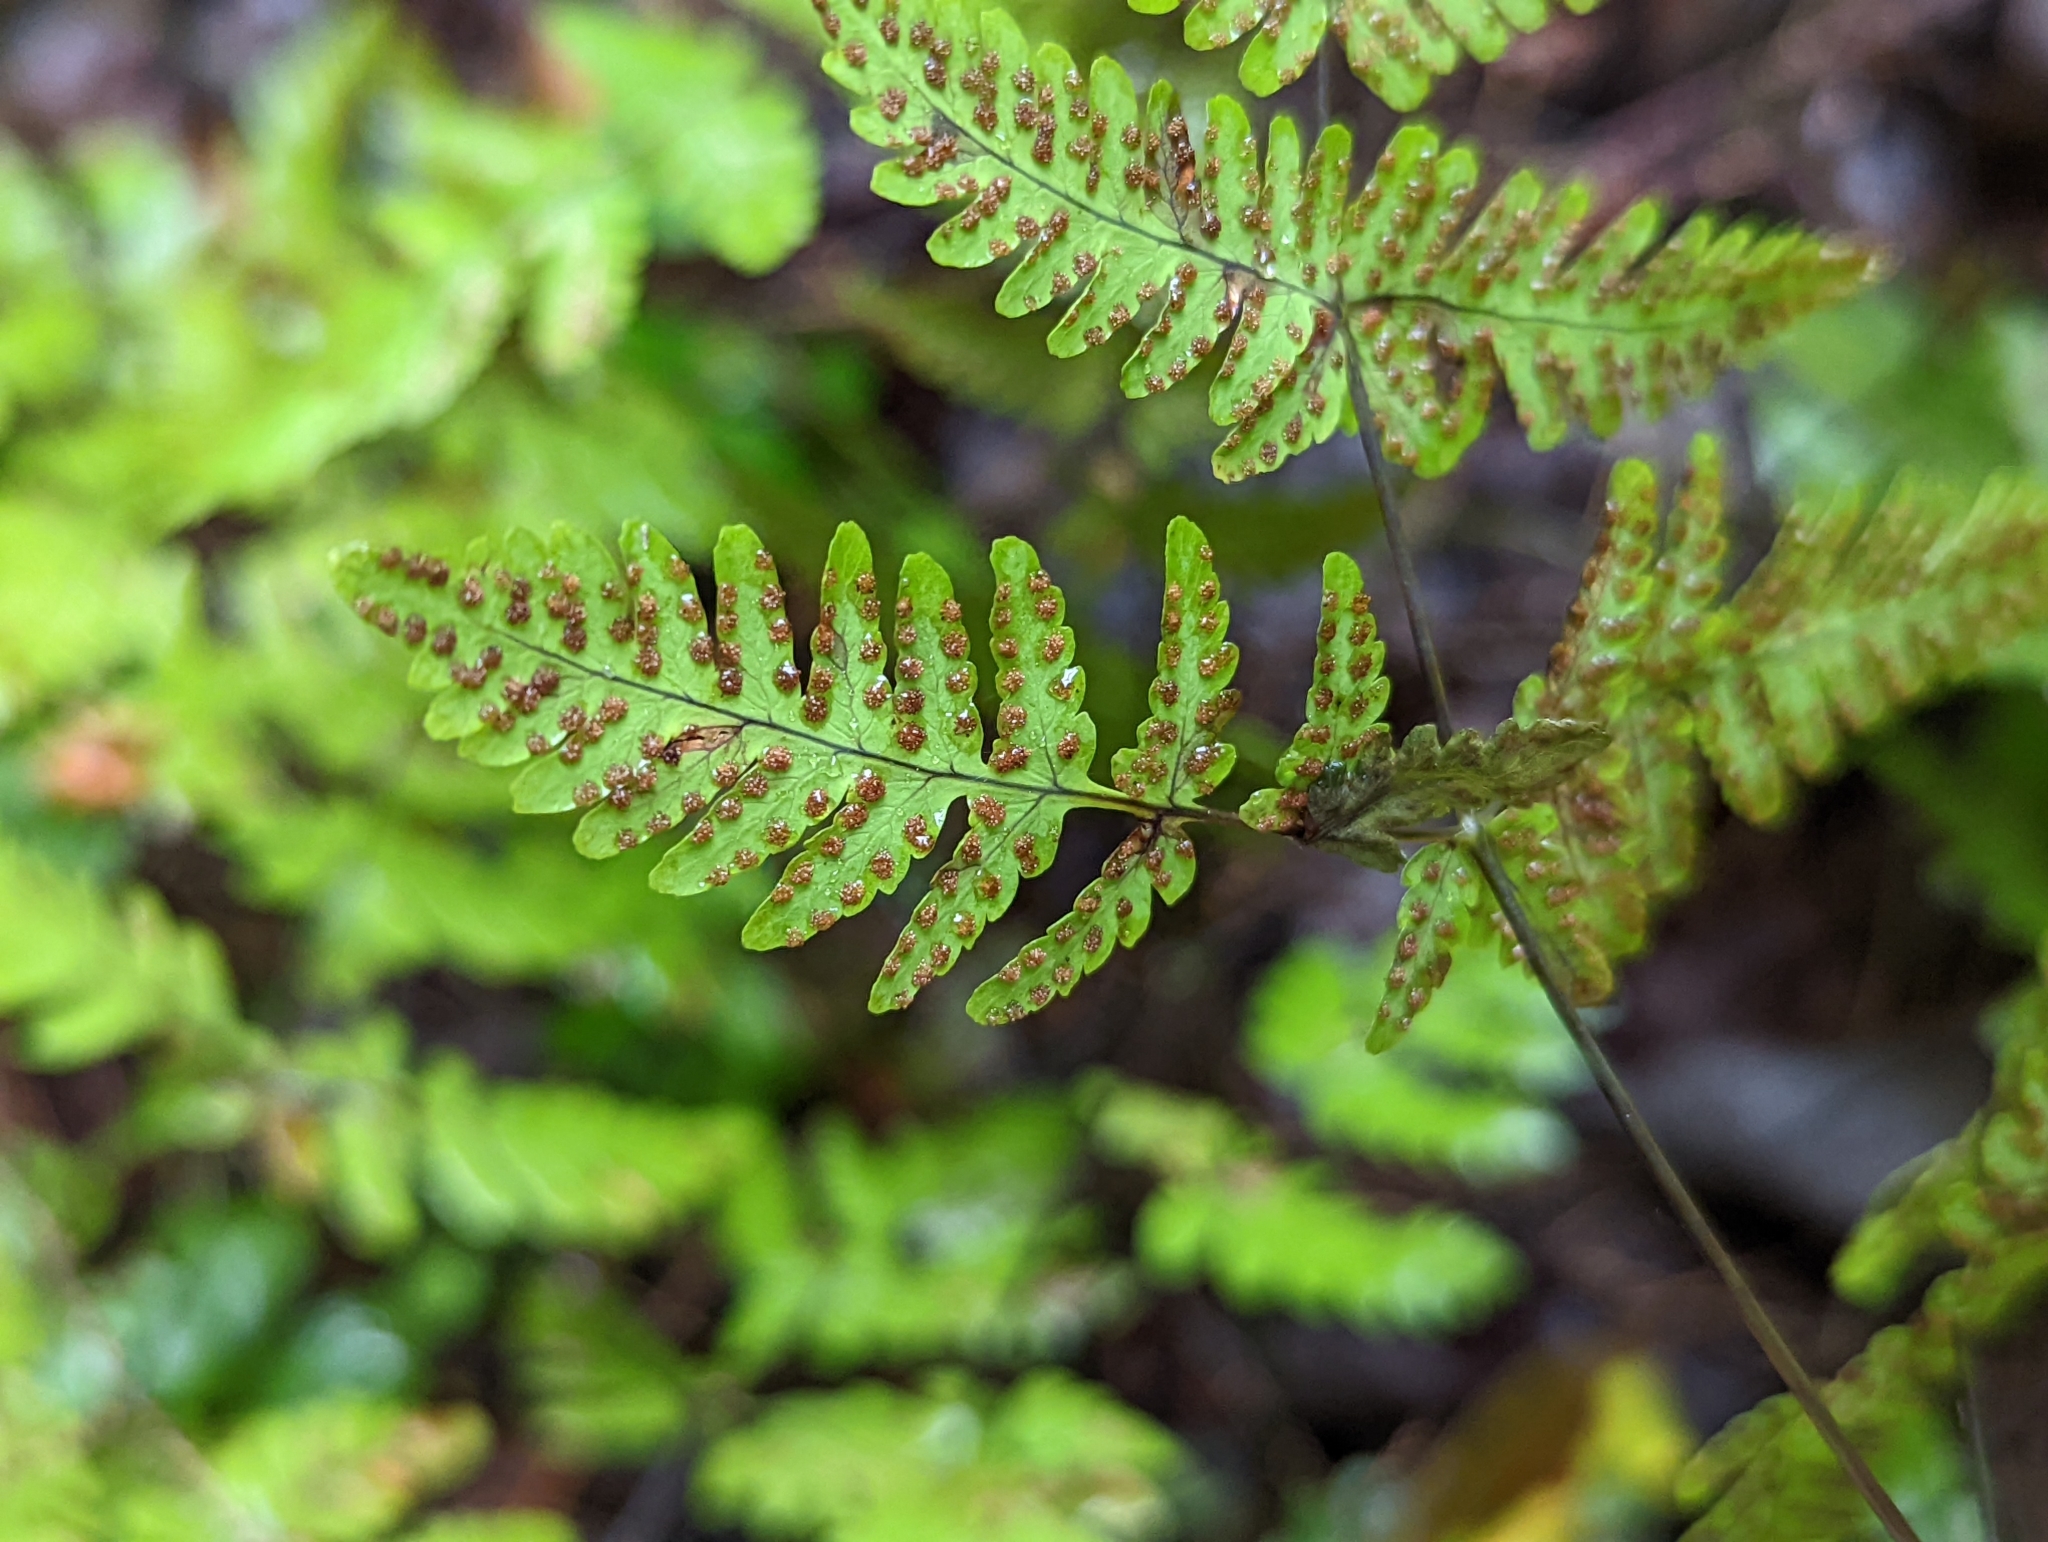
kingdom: Plantae
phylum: Tracheophyta
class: Polypodiopsida
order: Polypodiales
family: Cystopteridaceae
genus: Gymnocarpium
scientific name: Gymnocarpium dryopteris
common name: Oak fern
